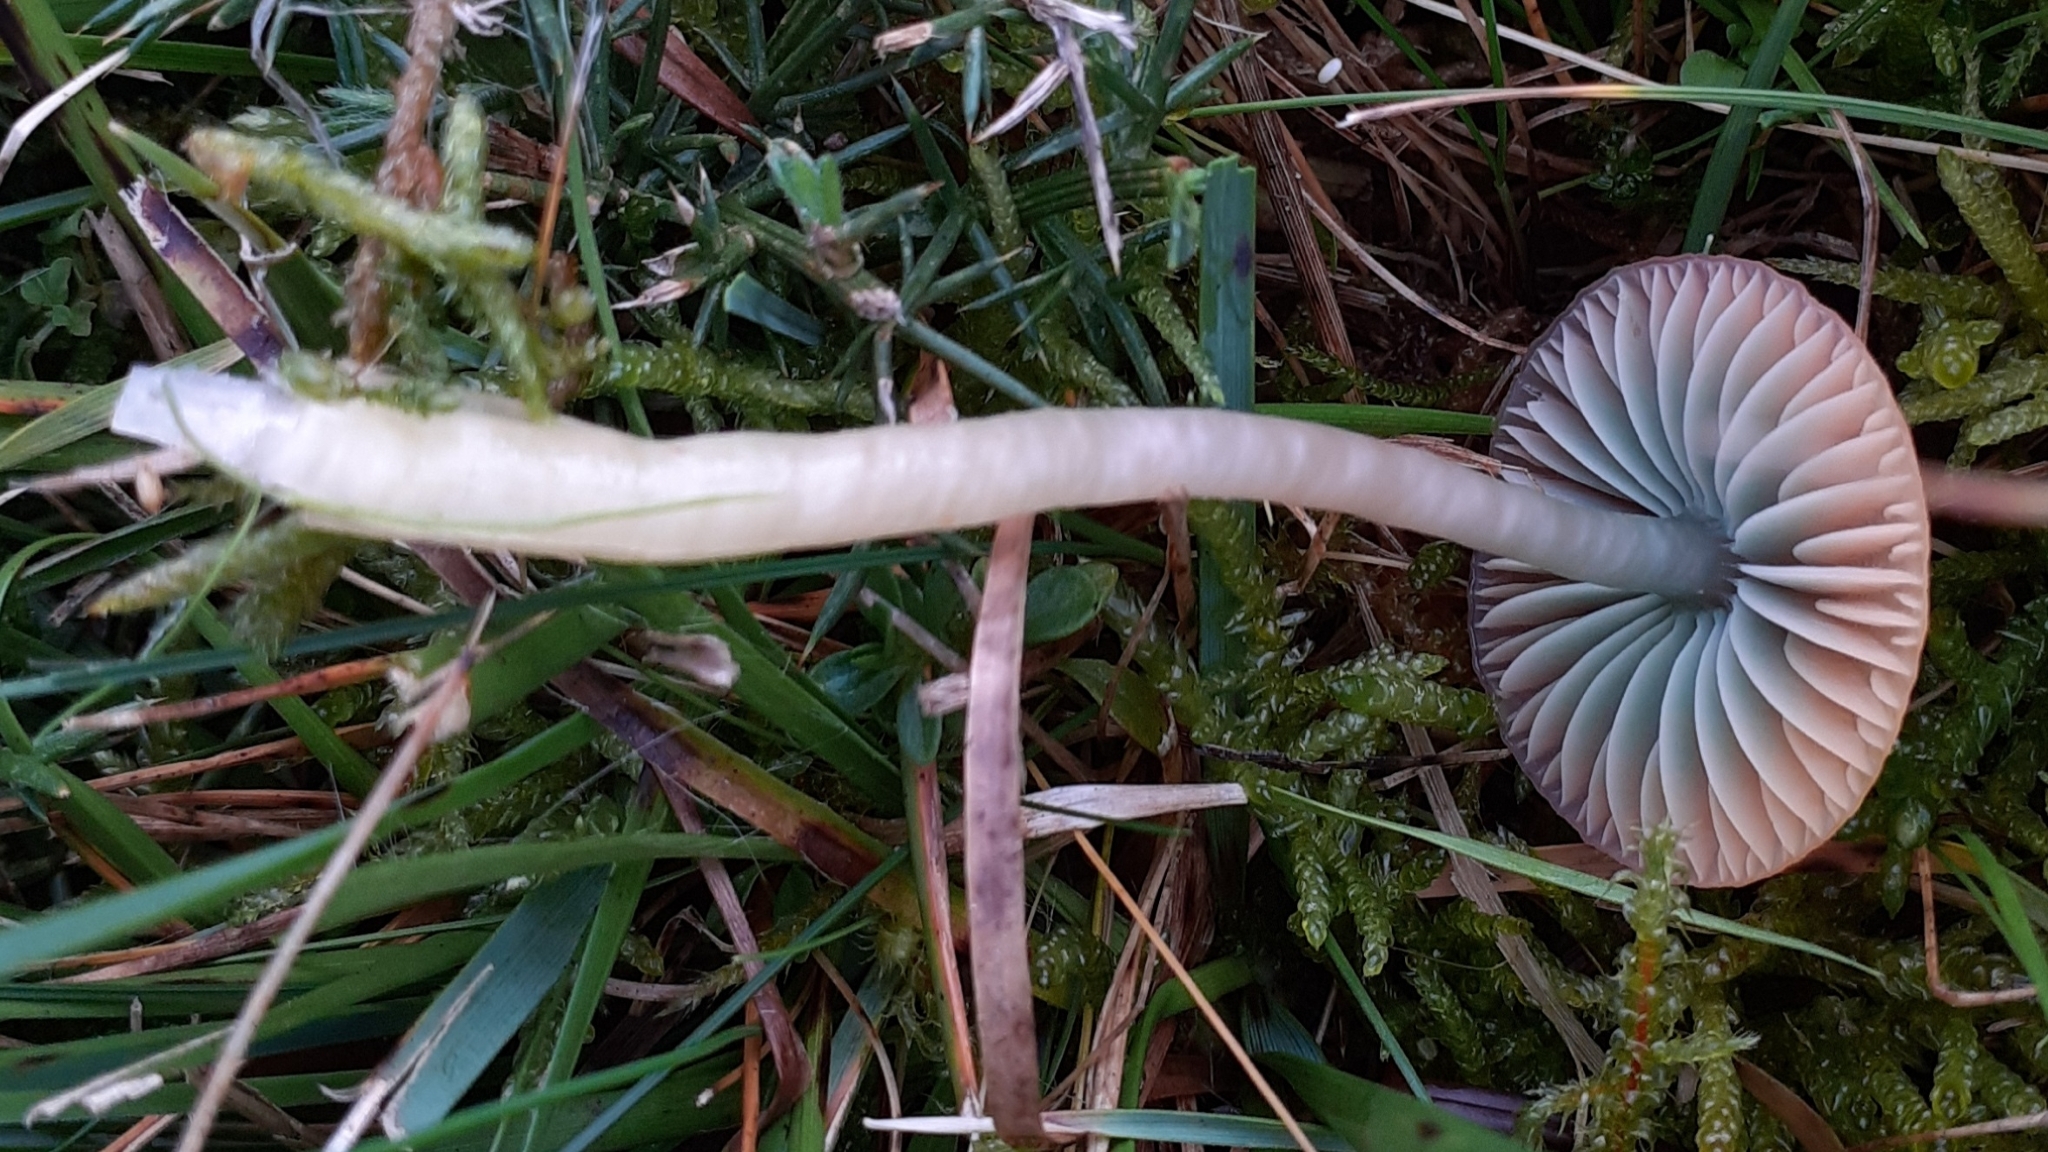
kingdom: Fungi
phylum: Basidiomycota
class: Agaricomycetes
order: Agaricales
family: Hygrophoraceae
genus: Gliophorus
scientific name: Gliophorus psittacinus
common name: Parrot wax-cap
